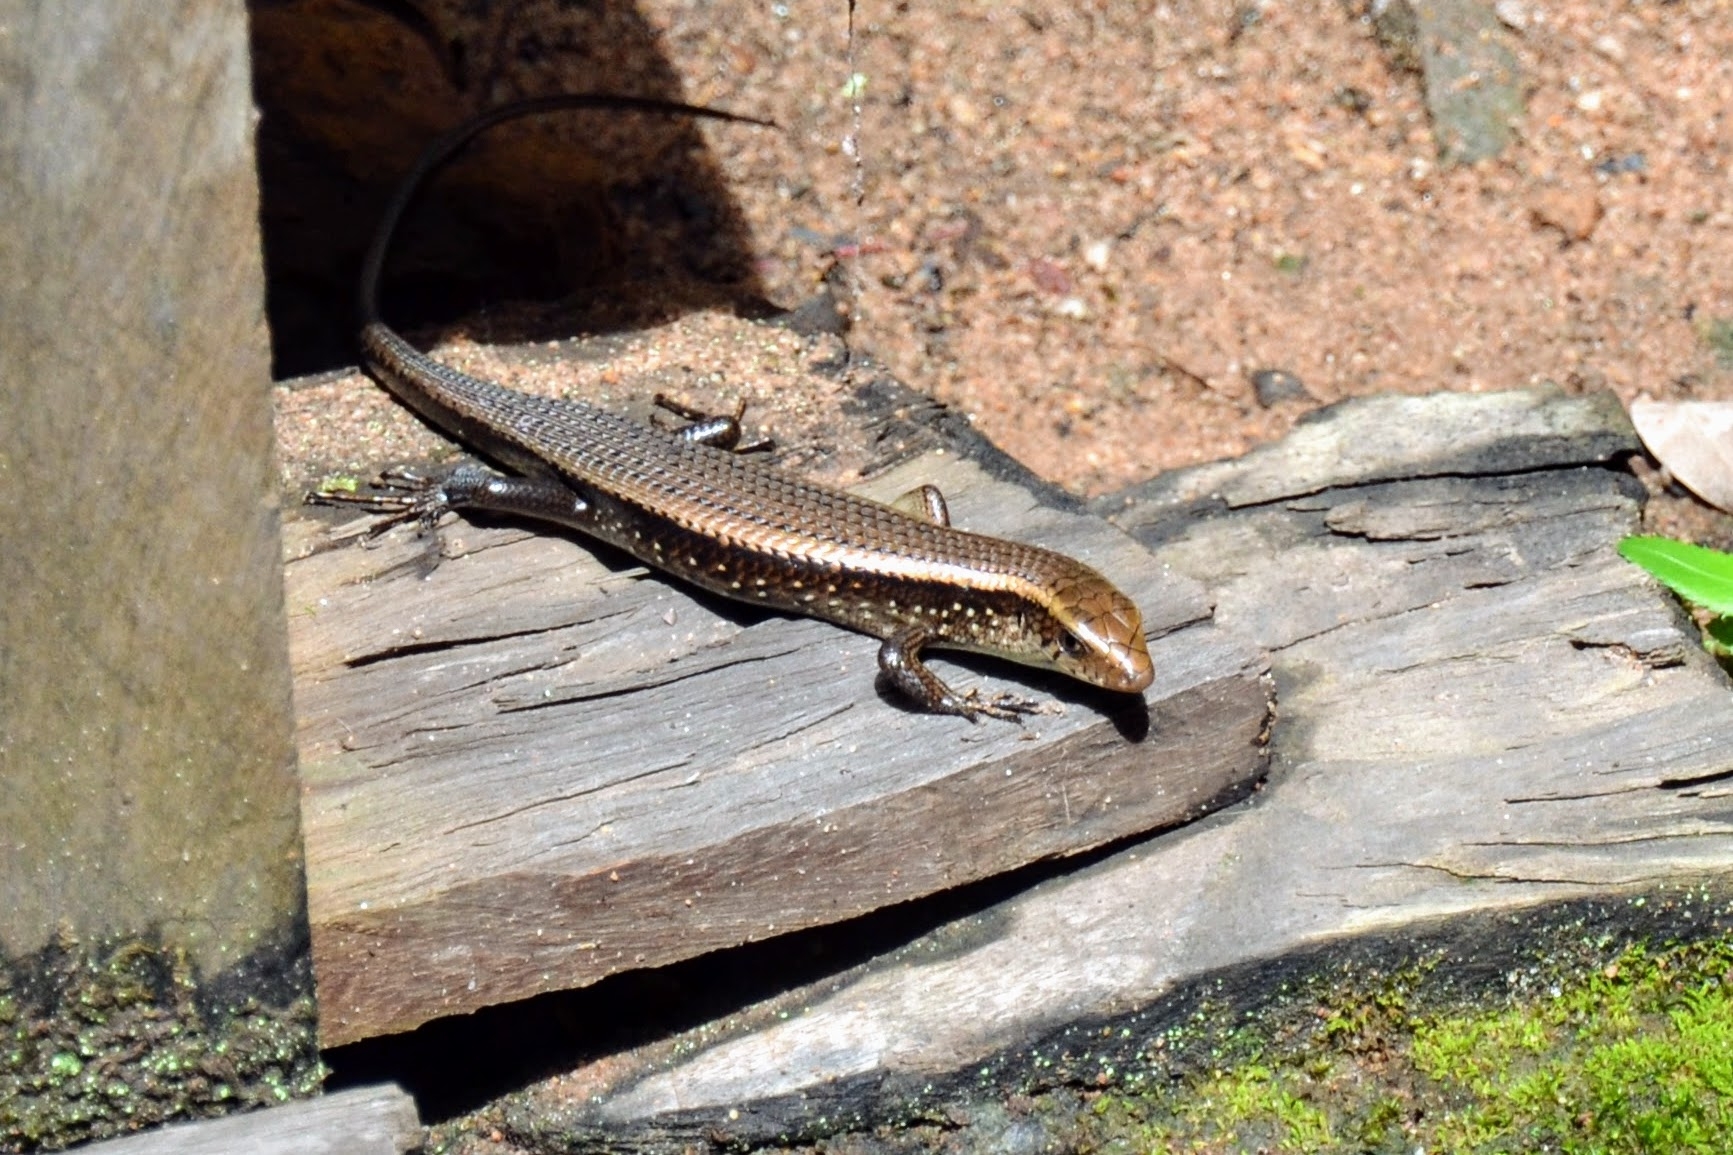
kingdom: Animalia
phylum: Chordata
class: Squamata
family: Scincidae
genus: Eutropis
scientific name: Eutropis multifasciata
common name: Common mabuya
